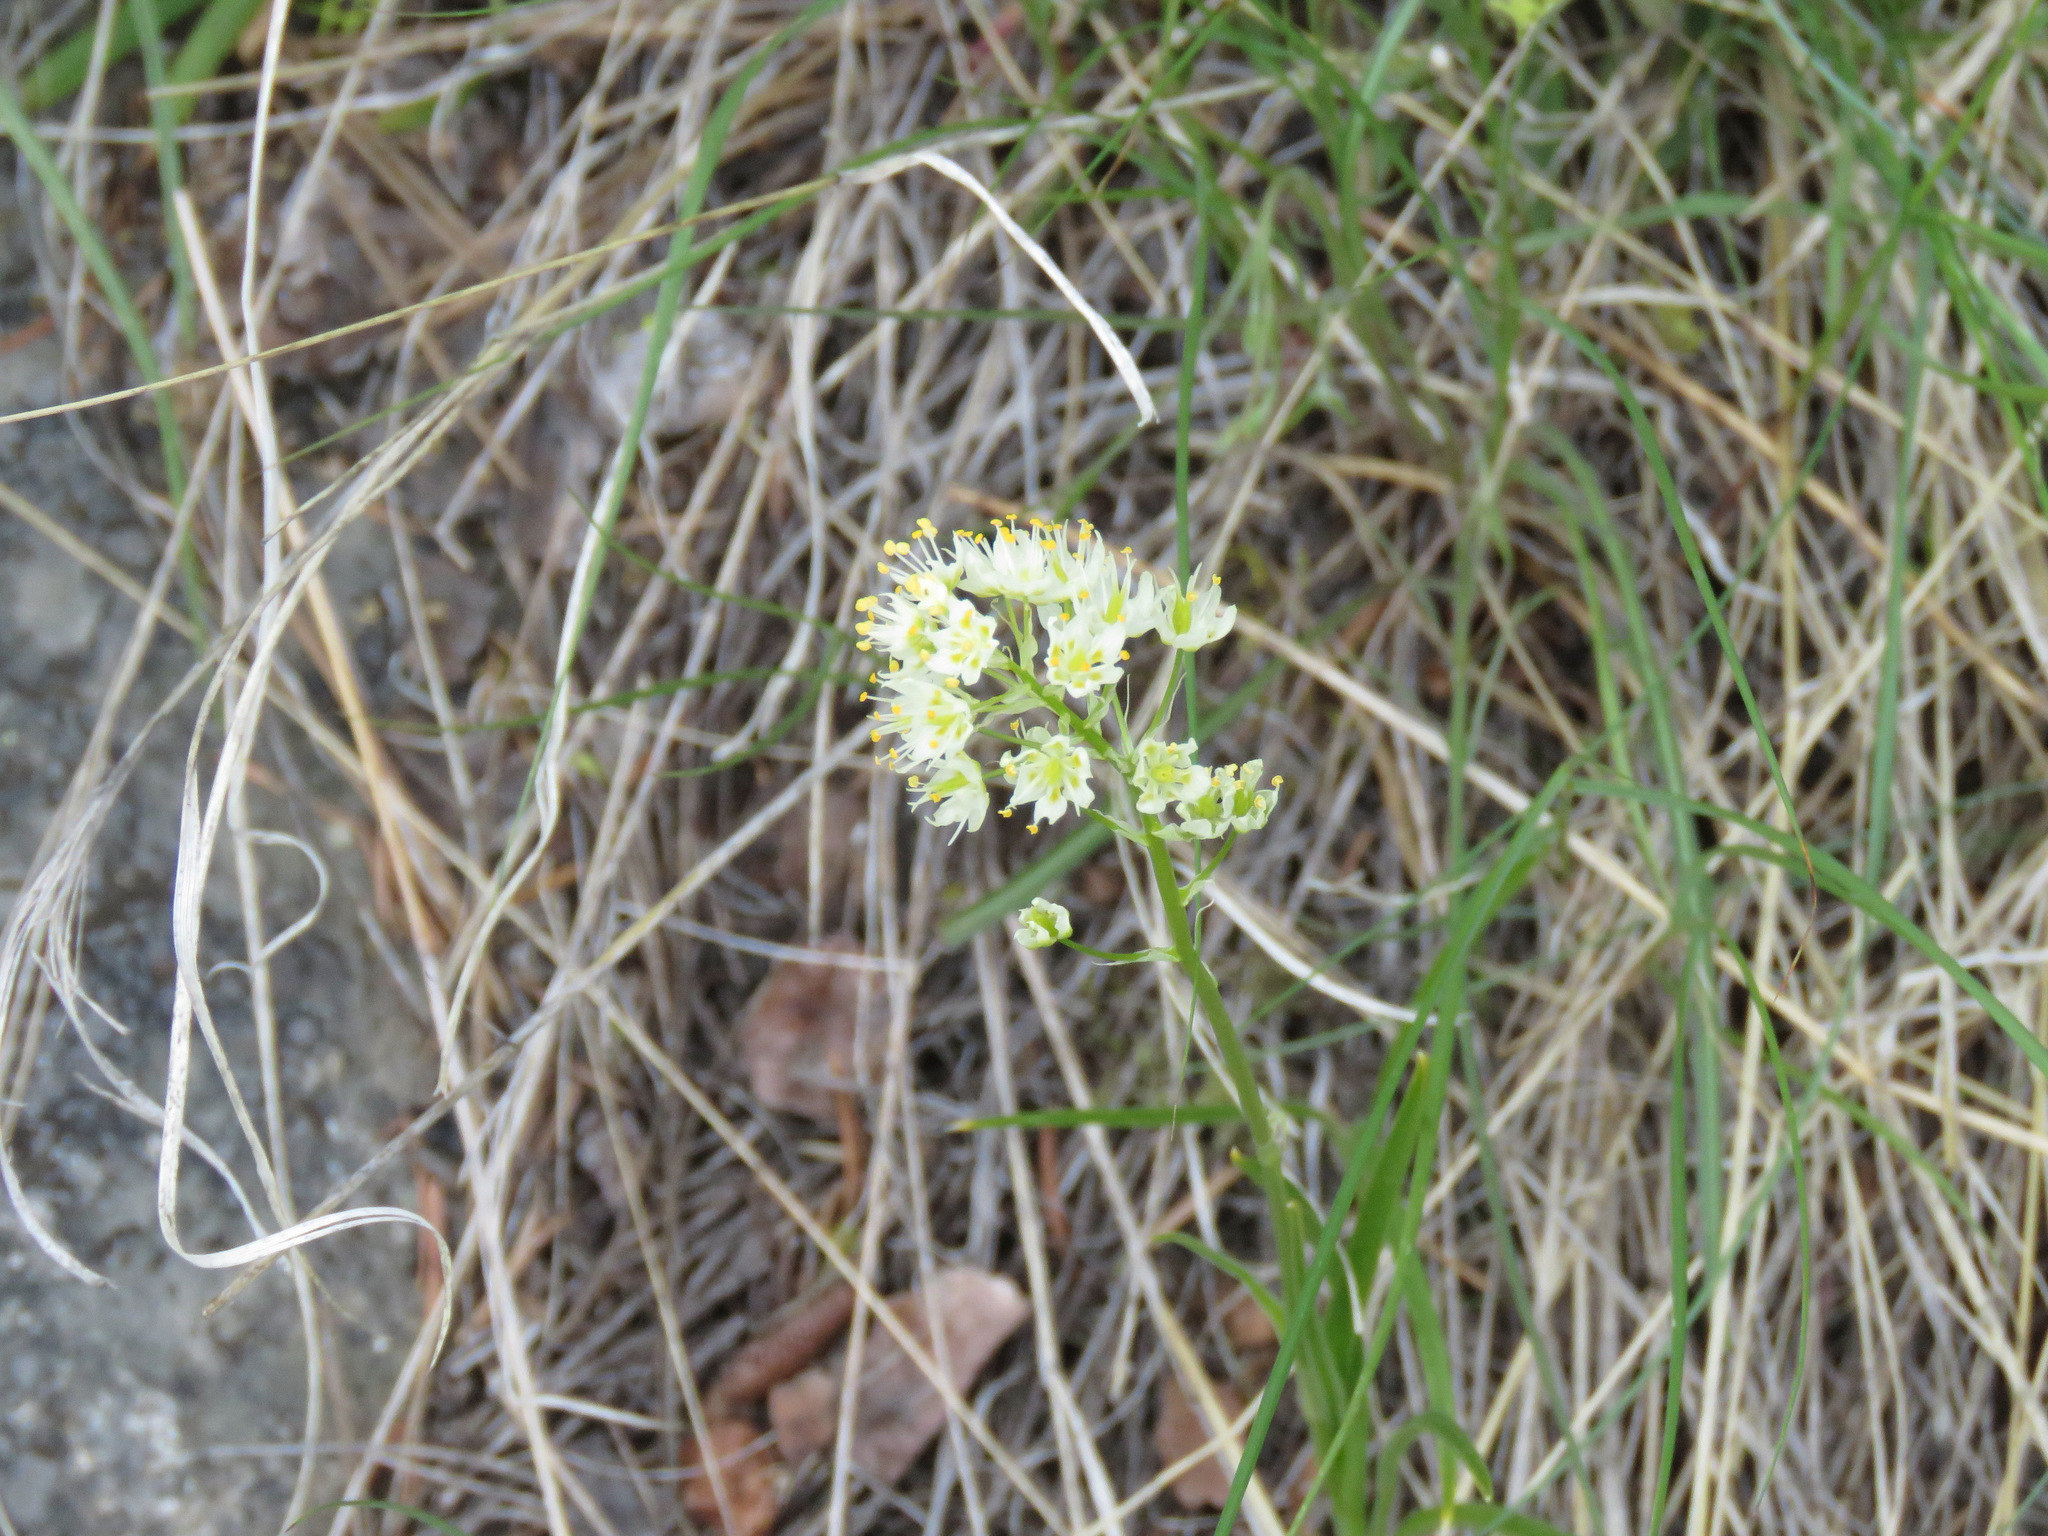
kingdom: Plantae
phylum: Tracheophyta
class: Liliopsida
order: Liliales
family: Melanthiaceae
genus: Toxicoscordion
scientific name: Toxicoscordion venenosum
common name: Meadow death camas
